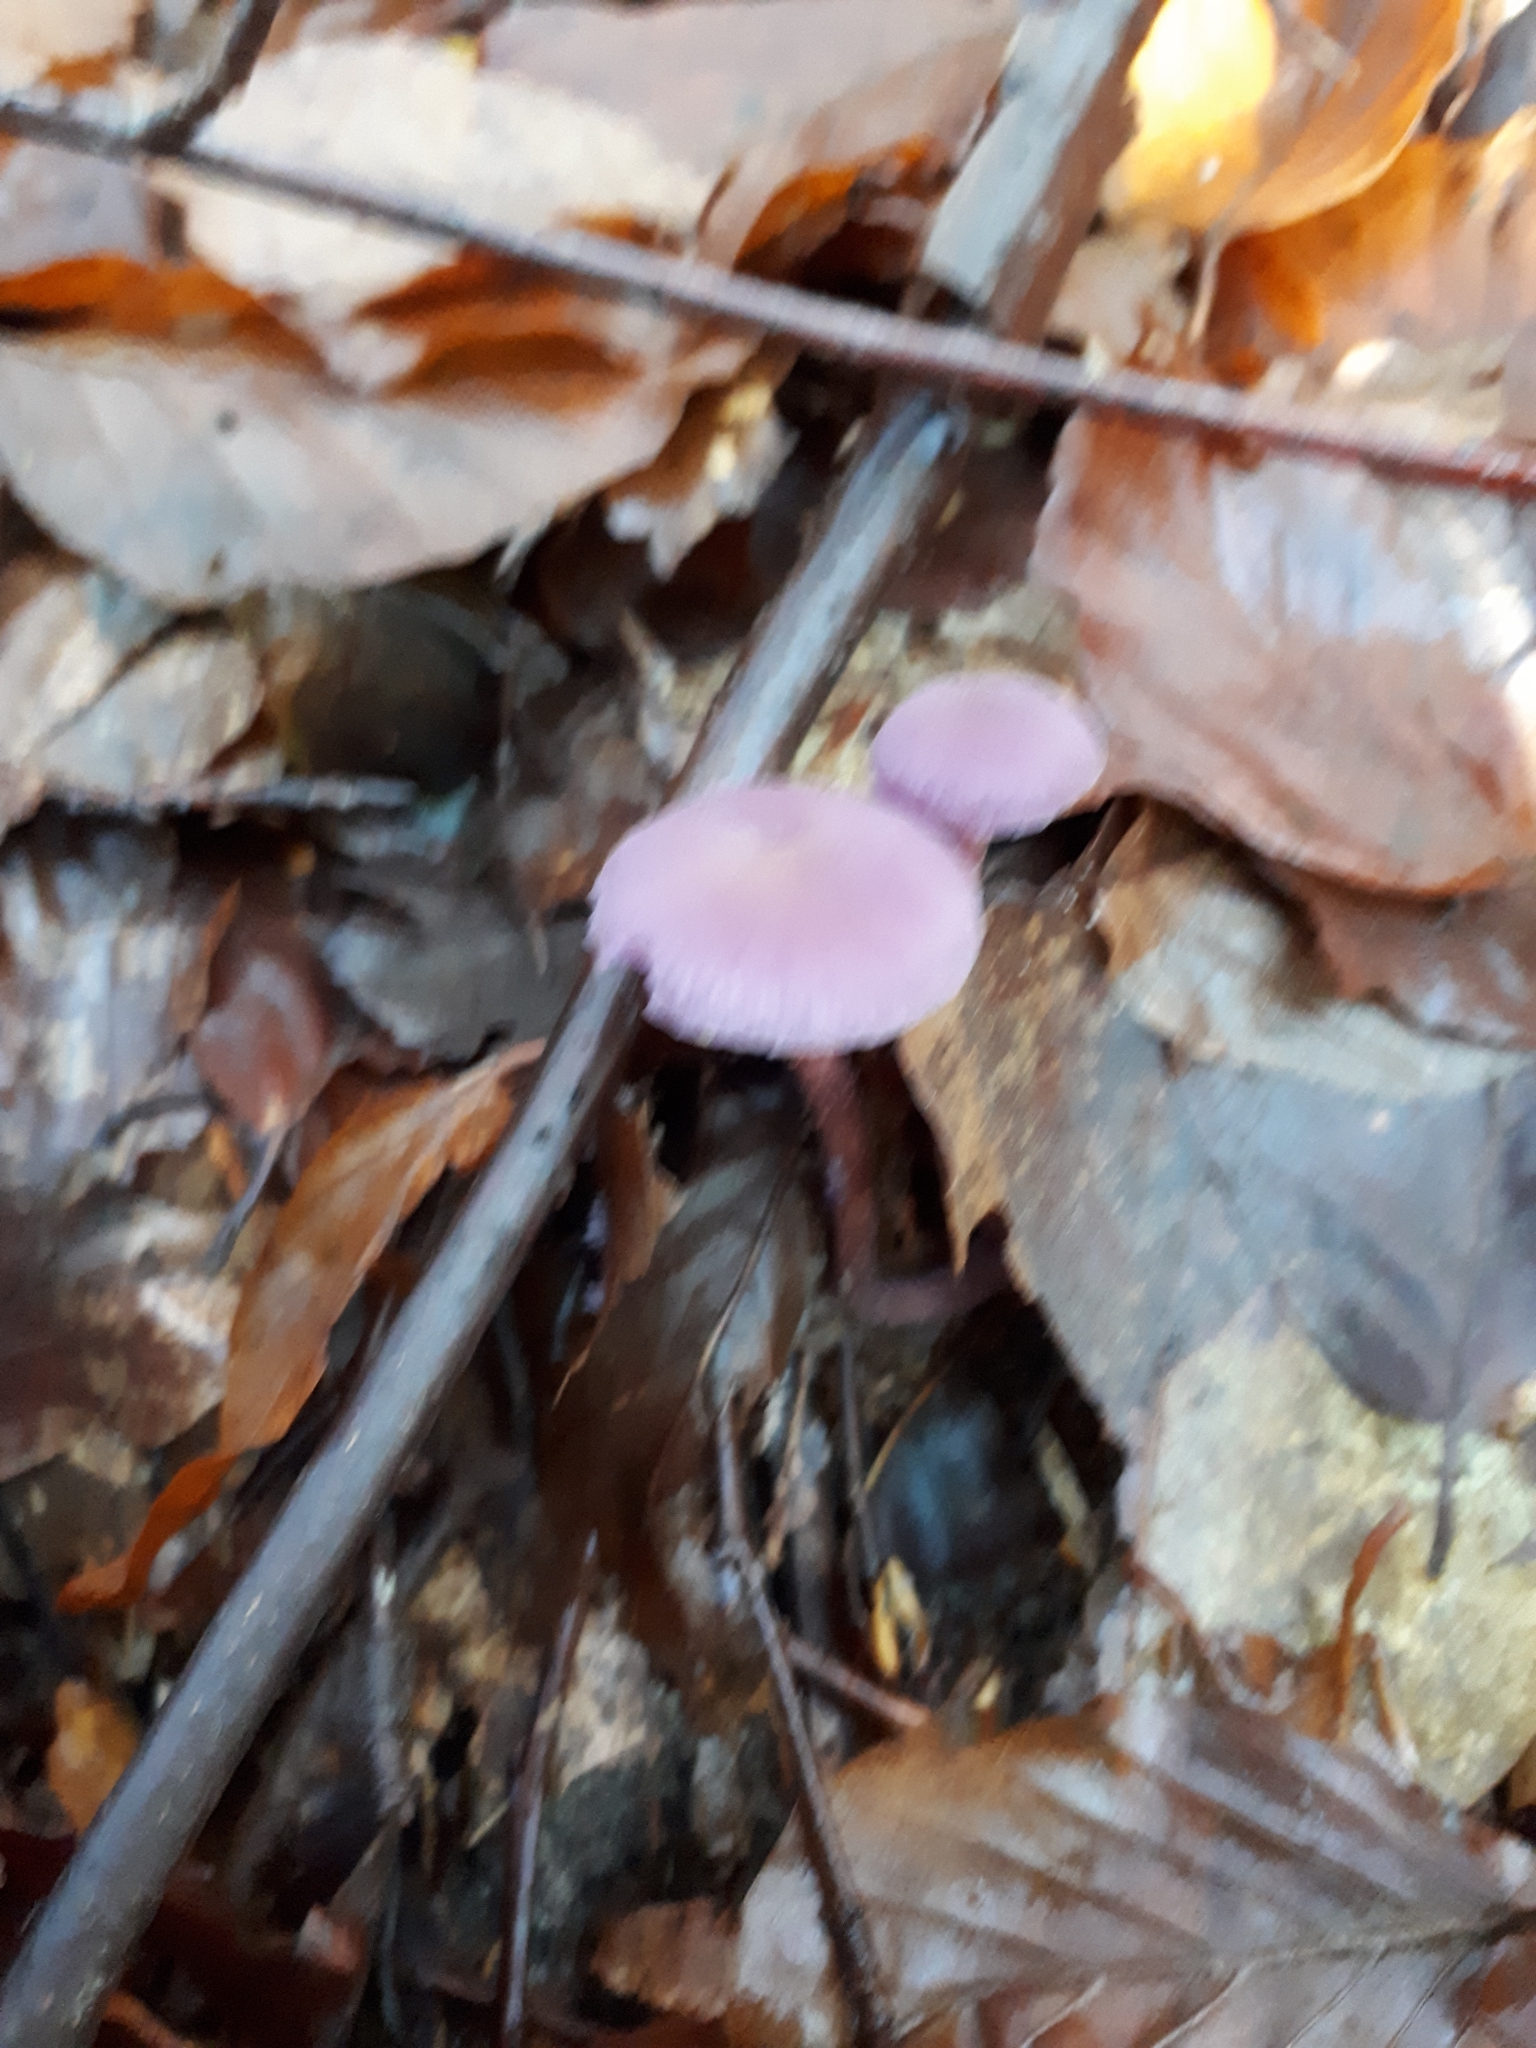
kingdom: Fungi
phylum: Basidiomycota
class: Agaricomycetes
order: Agaricales
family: Hydnangiaceae
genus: Laccaria
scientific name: Laccaria amethystina
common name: Amethyst deceiver
